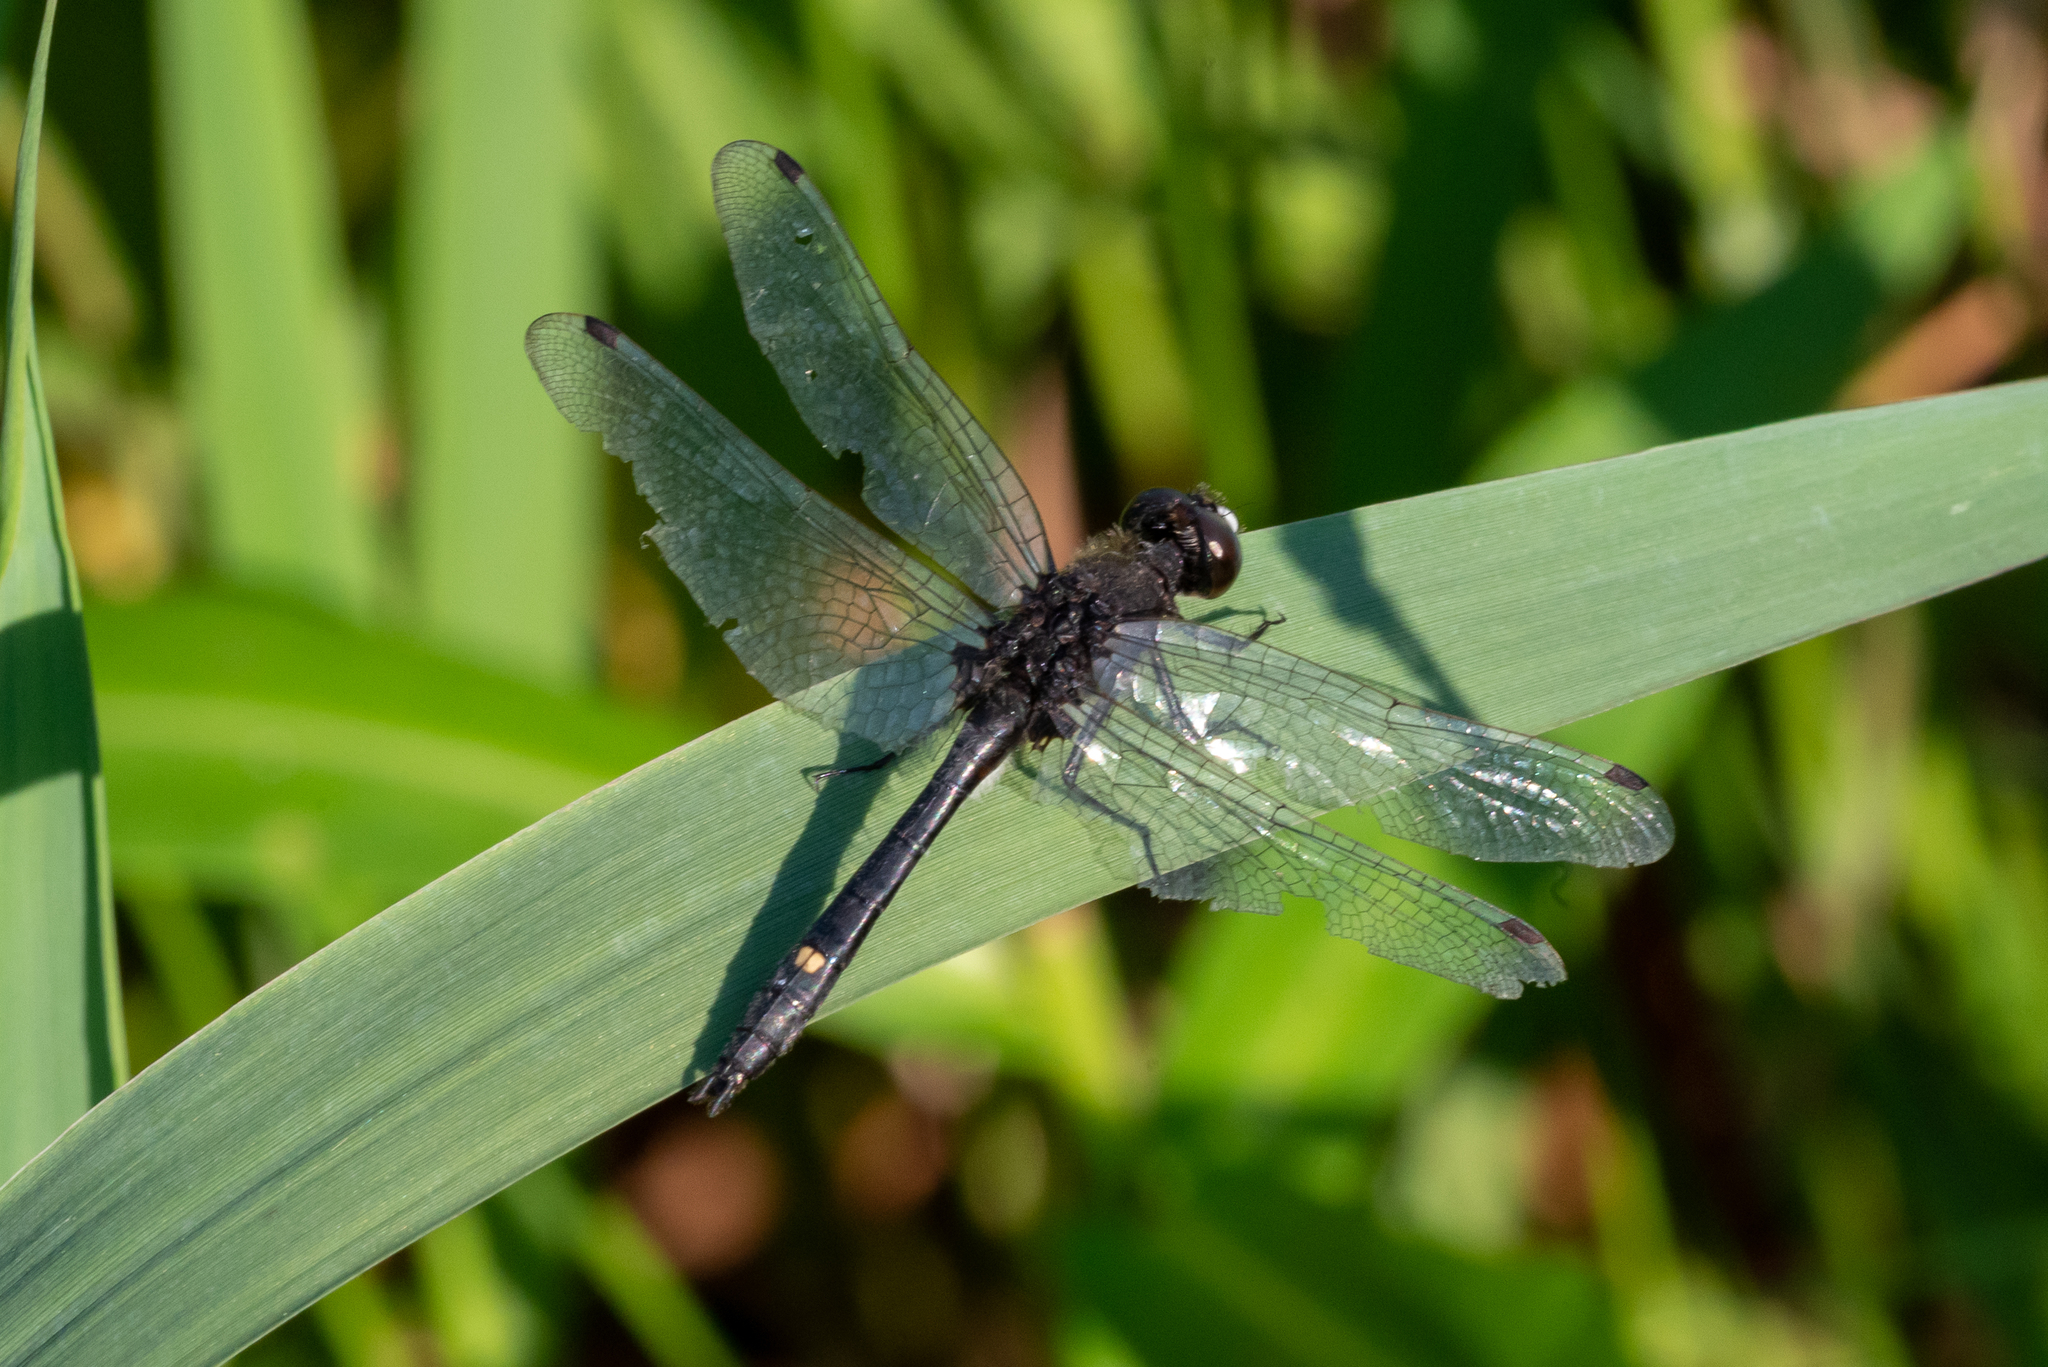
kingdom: Animalia
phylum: Arthropoda
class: Insecta
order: Odonata
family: Libellulidae
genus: Leucorrhinia
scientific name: Leucorrhinia intacta
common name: Dot-tailed whiteface
